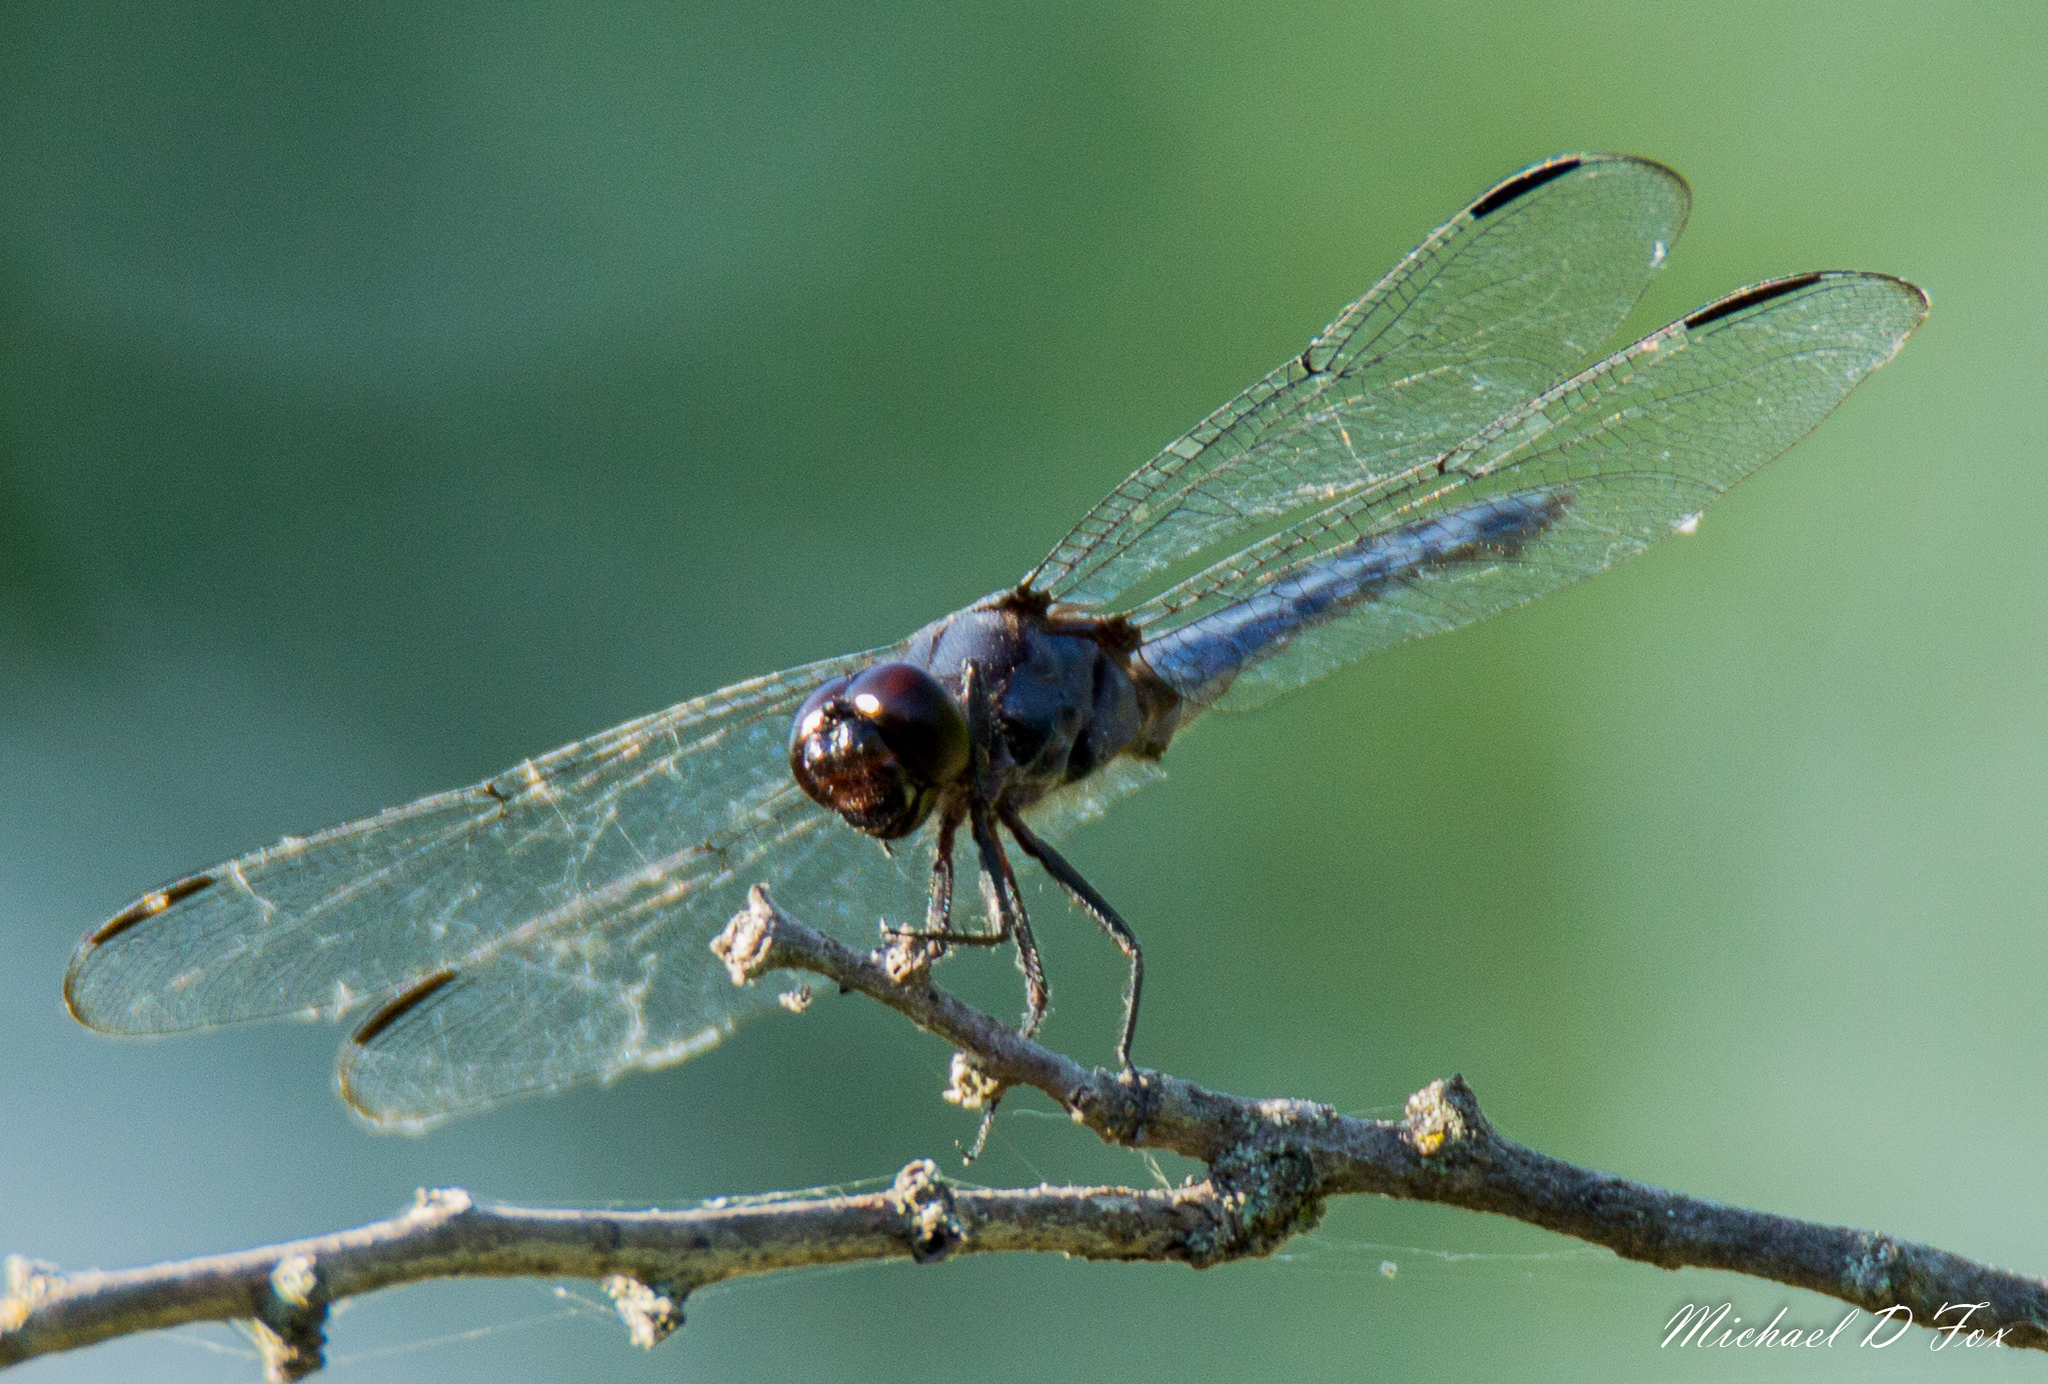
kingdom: Animalia
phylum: Arthropoda
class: Insecta
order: Odonata
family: Libellulidae
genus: Libellula
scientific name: Libellula incesta
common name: Slaty skimmer
